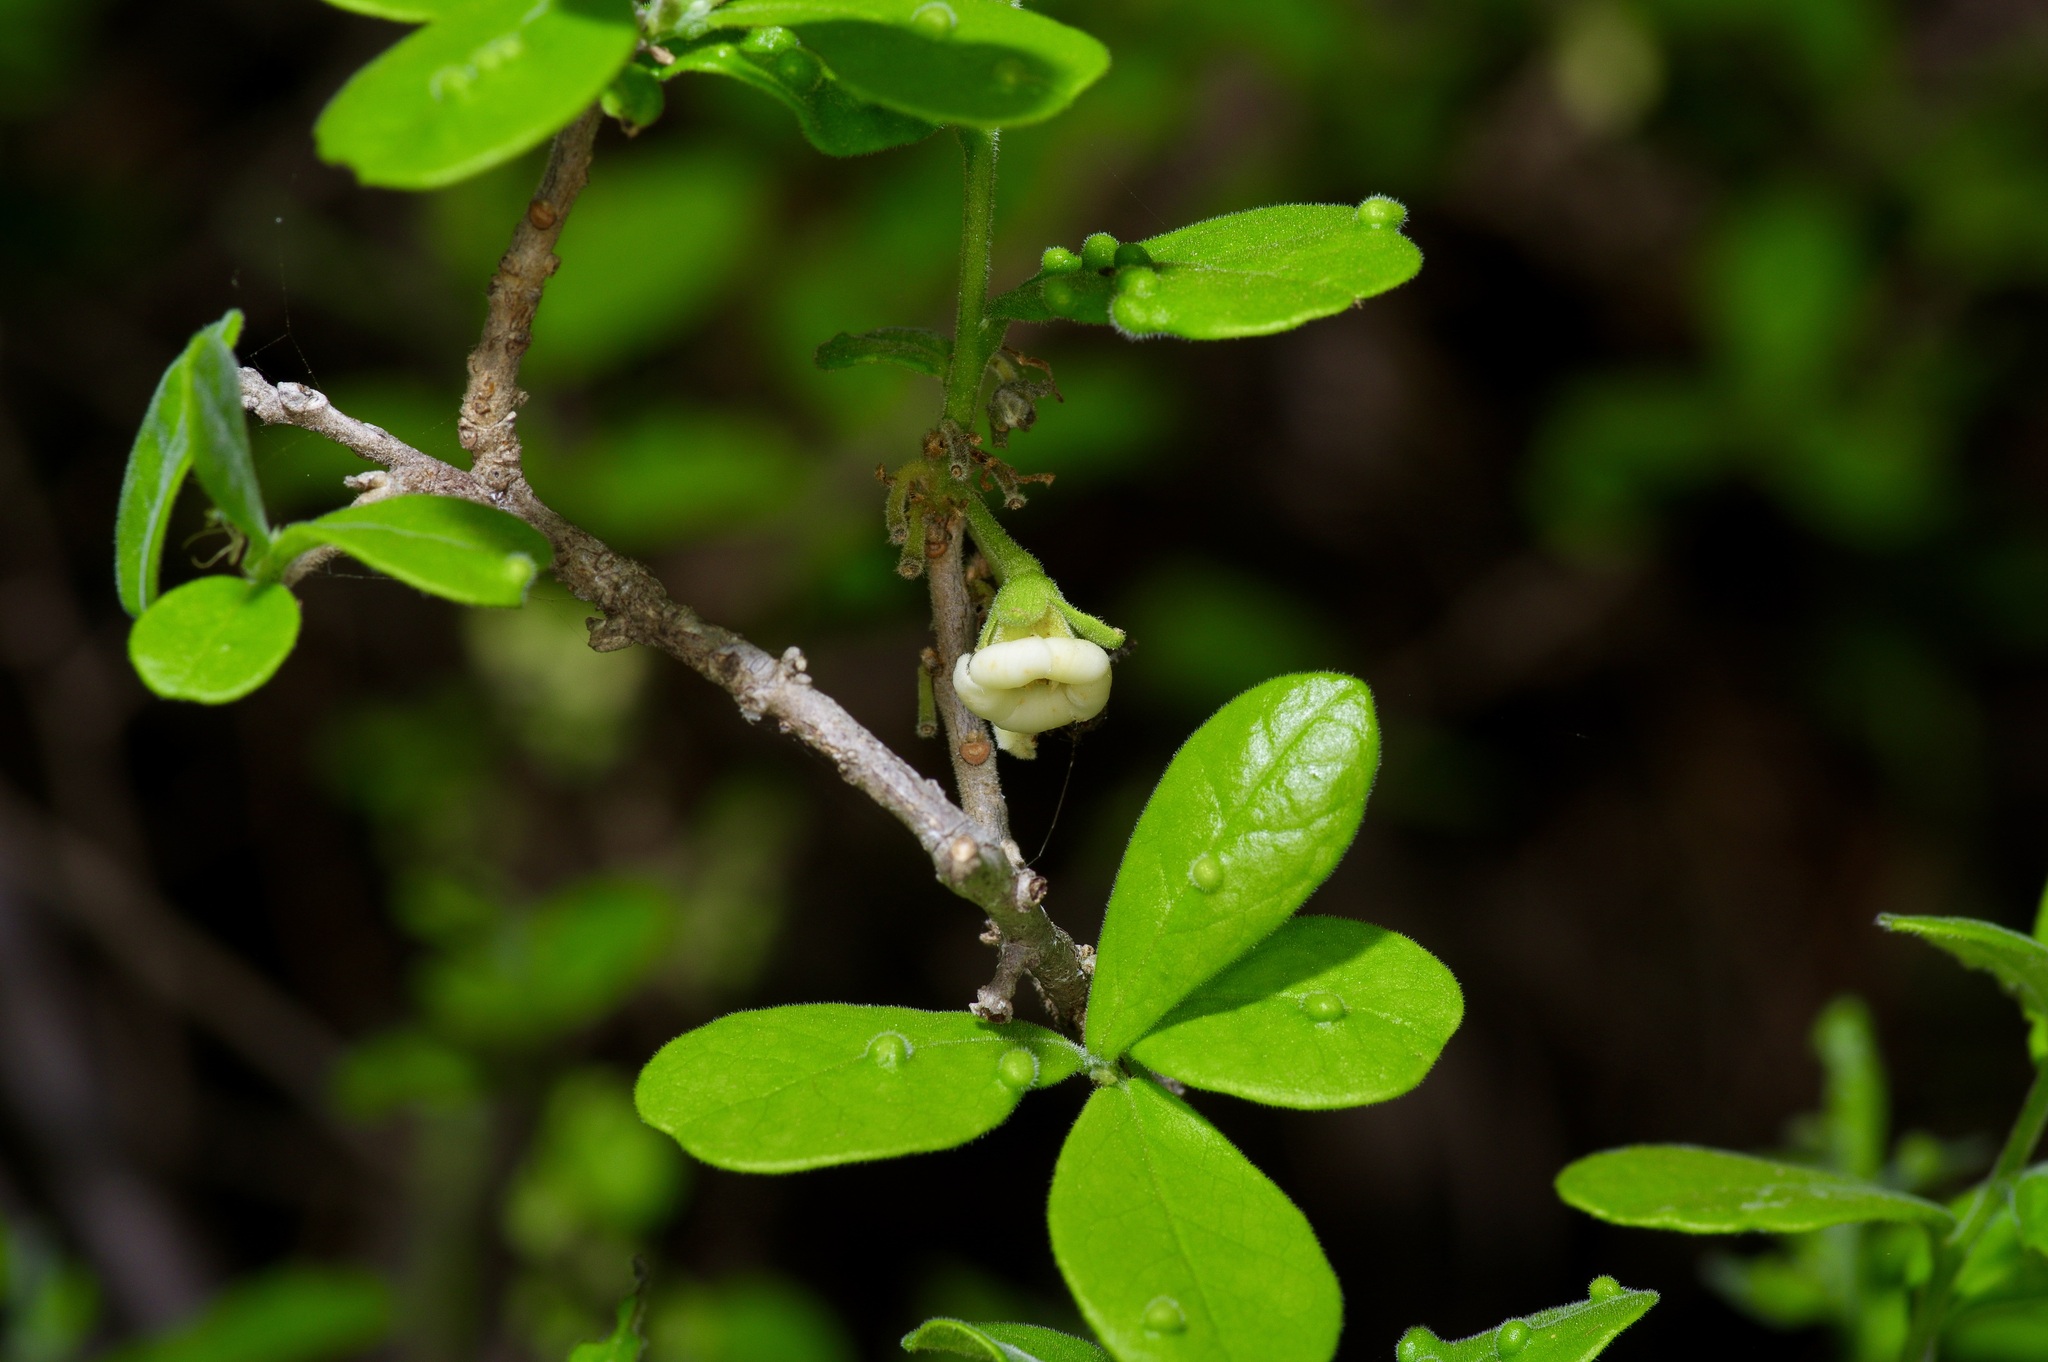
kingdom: Plantae
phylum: Tracheophyta
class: Magnoliopsida
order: Ericales
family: Ebenaceae
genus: Diospyros
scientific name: Diospyros texana
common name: Texas persimmon
